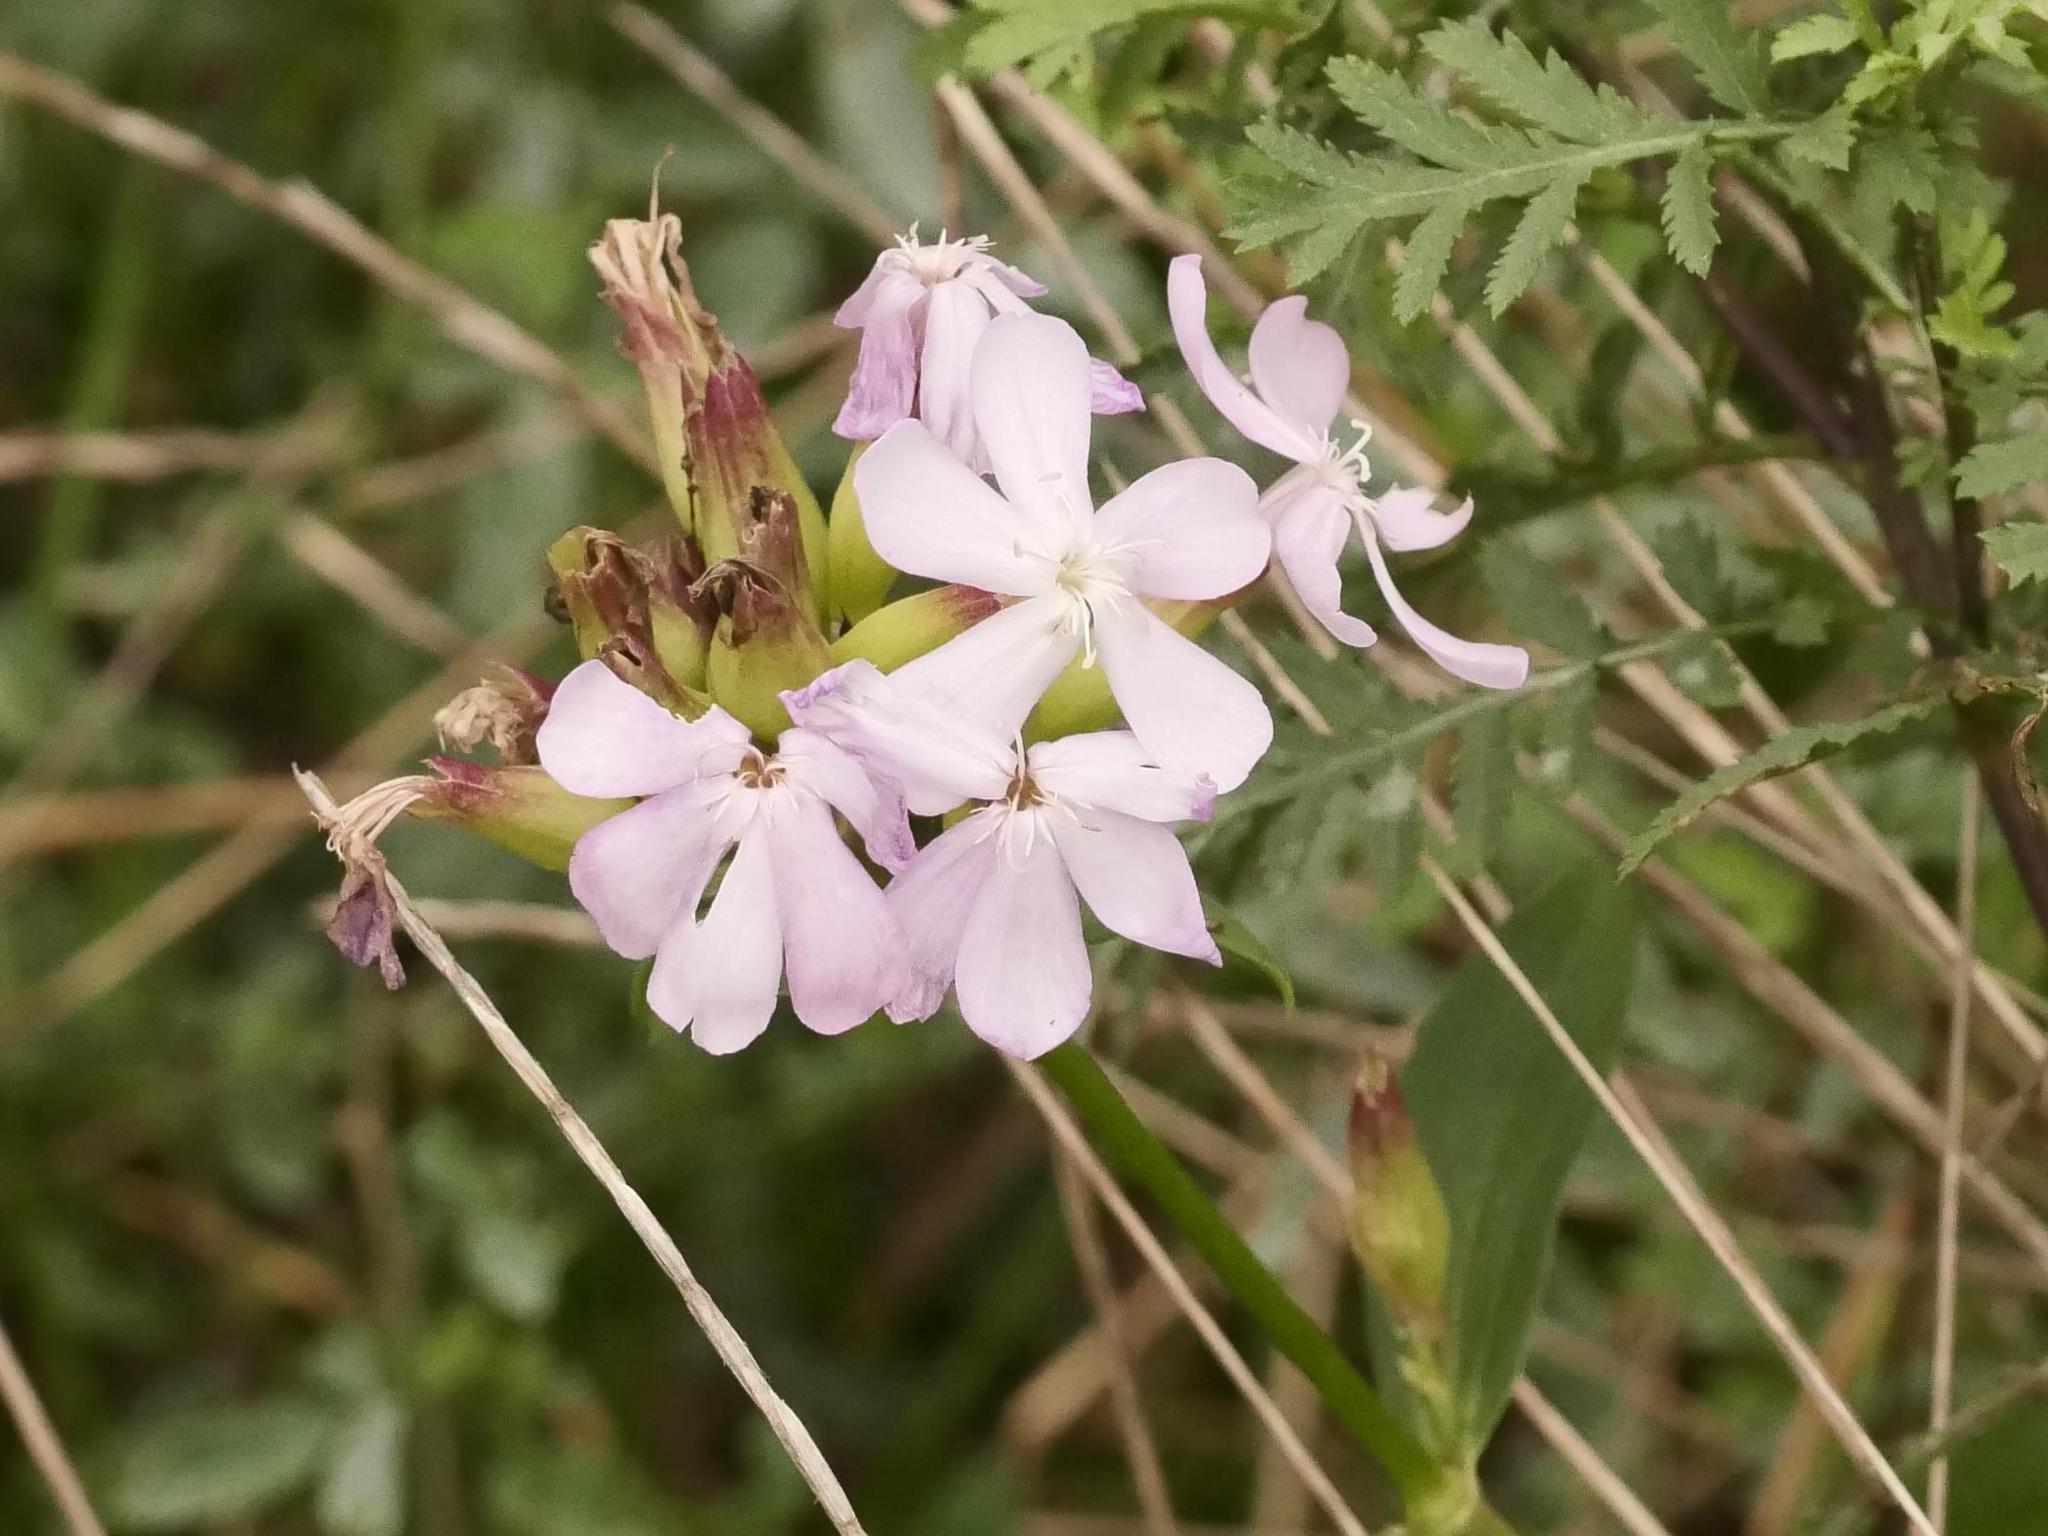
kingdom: Plantae
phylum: Tracheophyta
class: Magnoliopsida
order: Caryophyllales
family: Caryophyllaceae
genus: Saponaria
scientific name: Saponaria officinalis
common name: Soapwort
